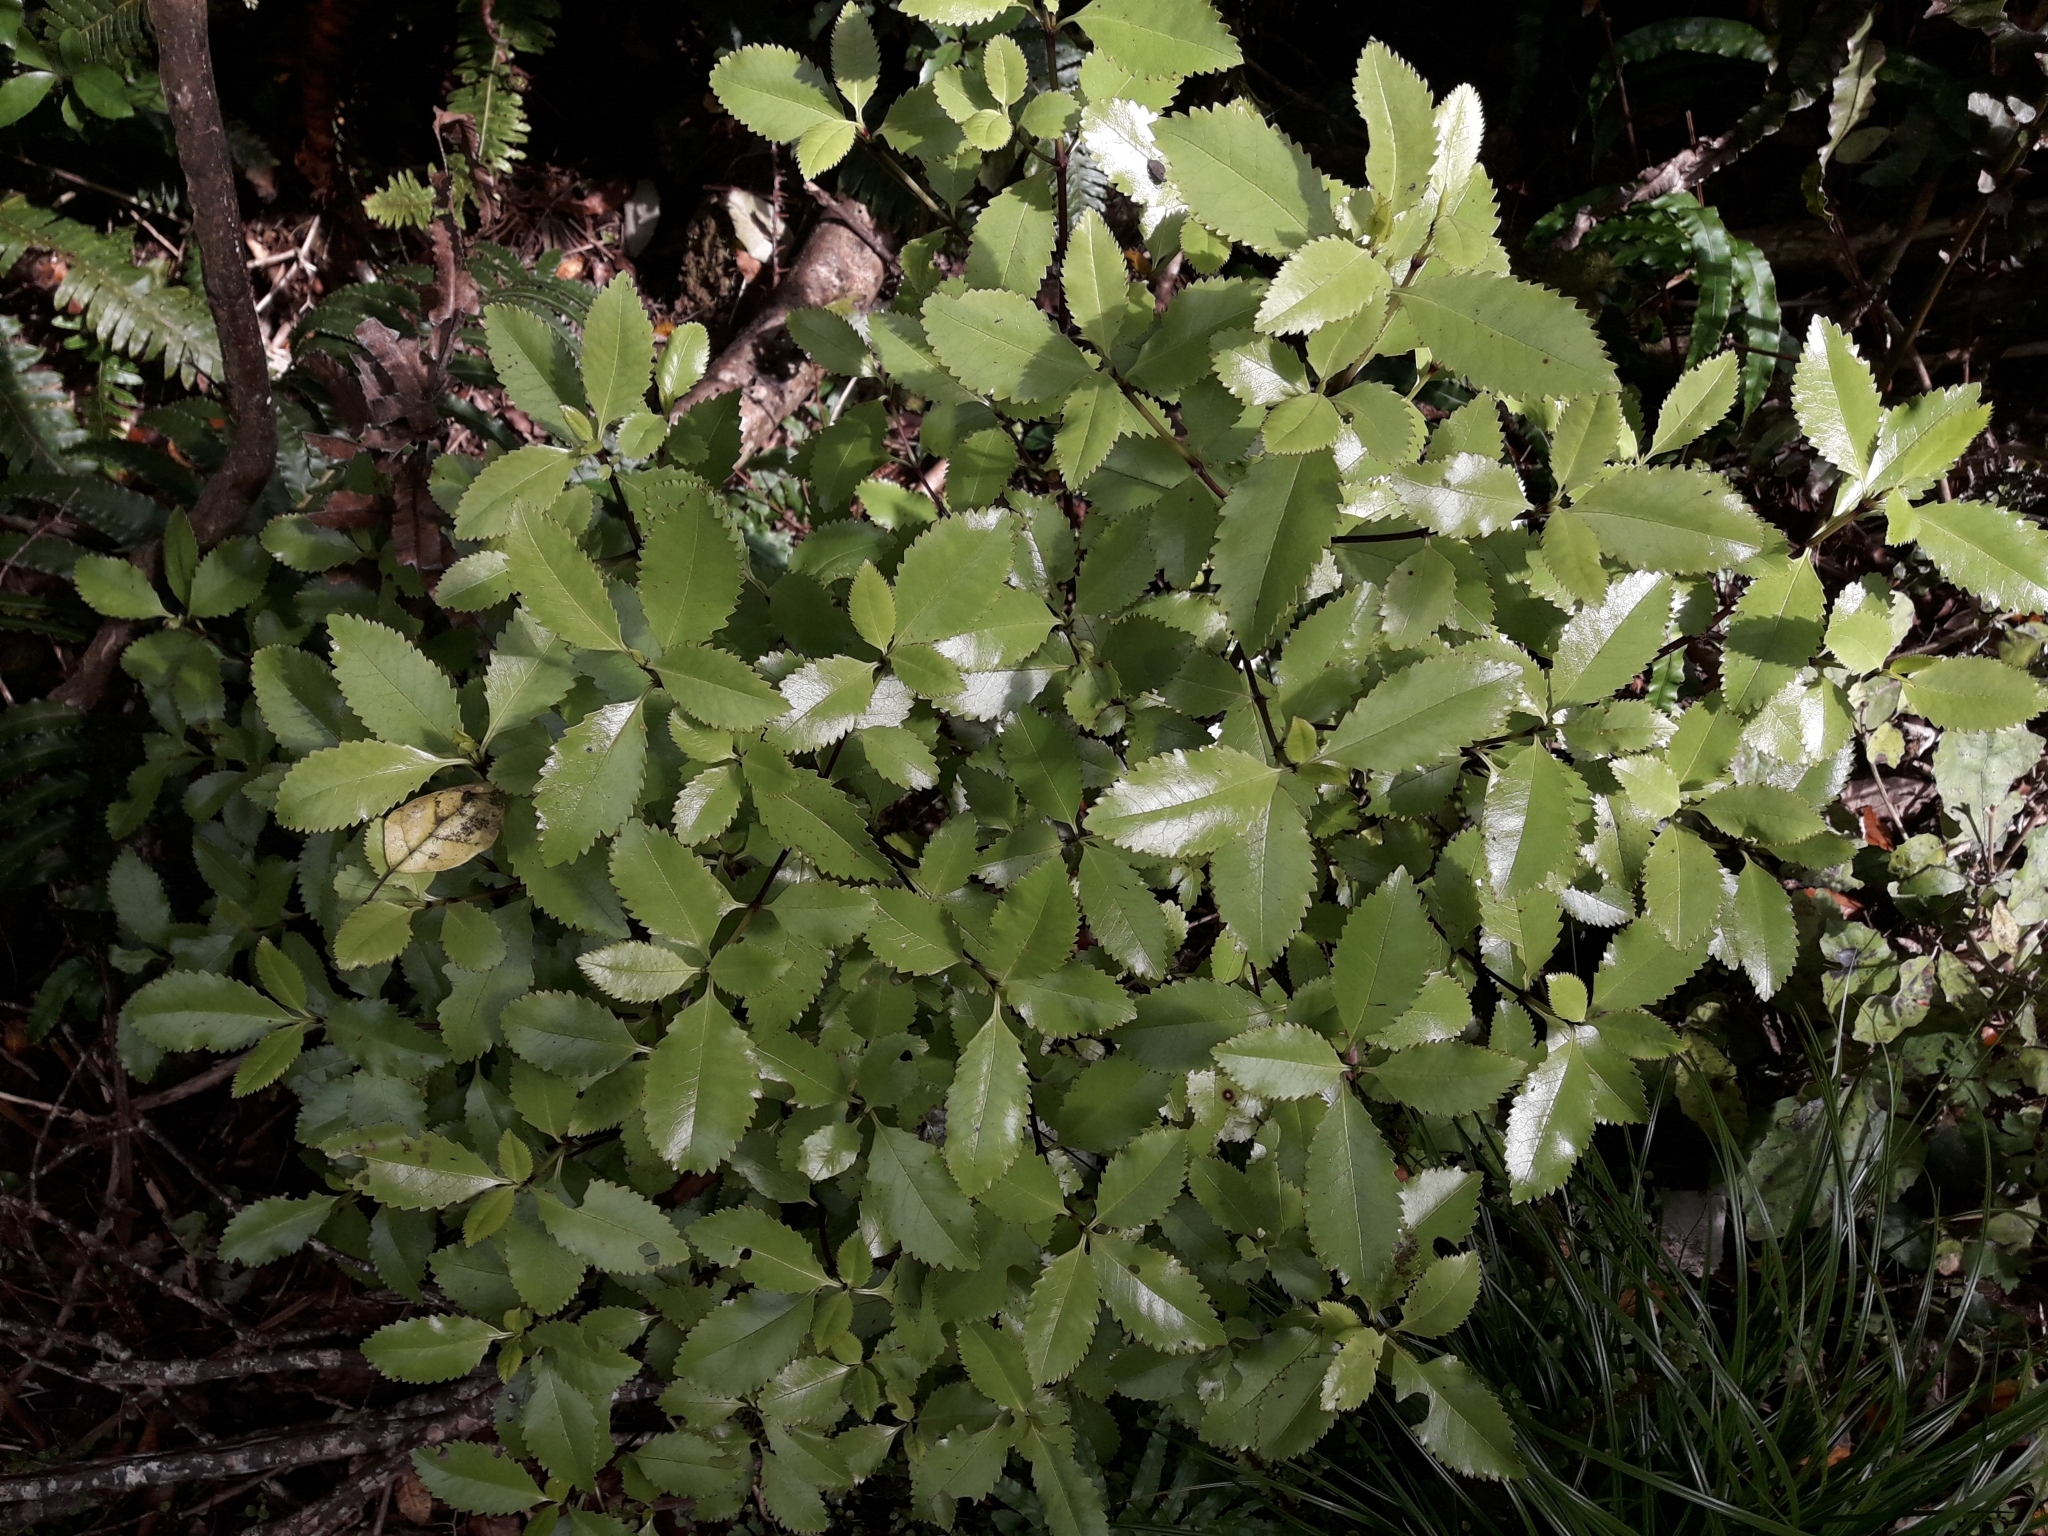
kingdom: Plantae
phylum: Tracheophyta
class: Magnoliopsida
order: Chloranthales
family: Chloranthaceae
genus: Ascarina
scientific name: Ascarina lucida
